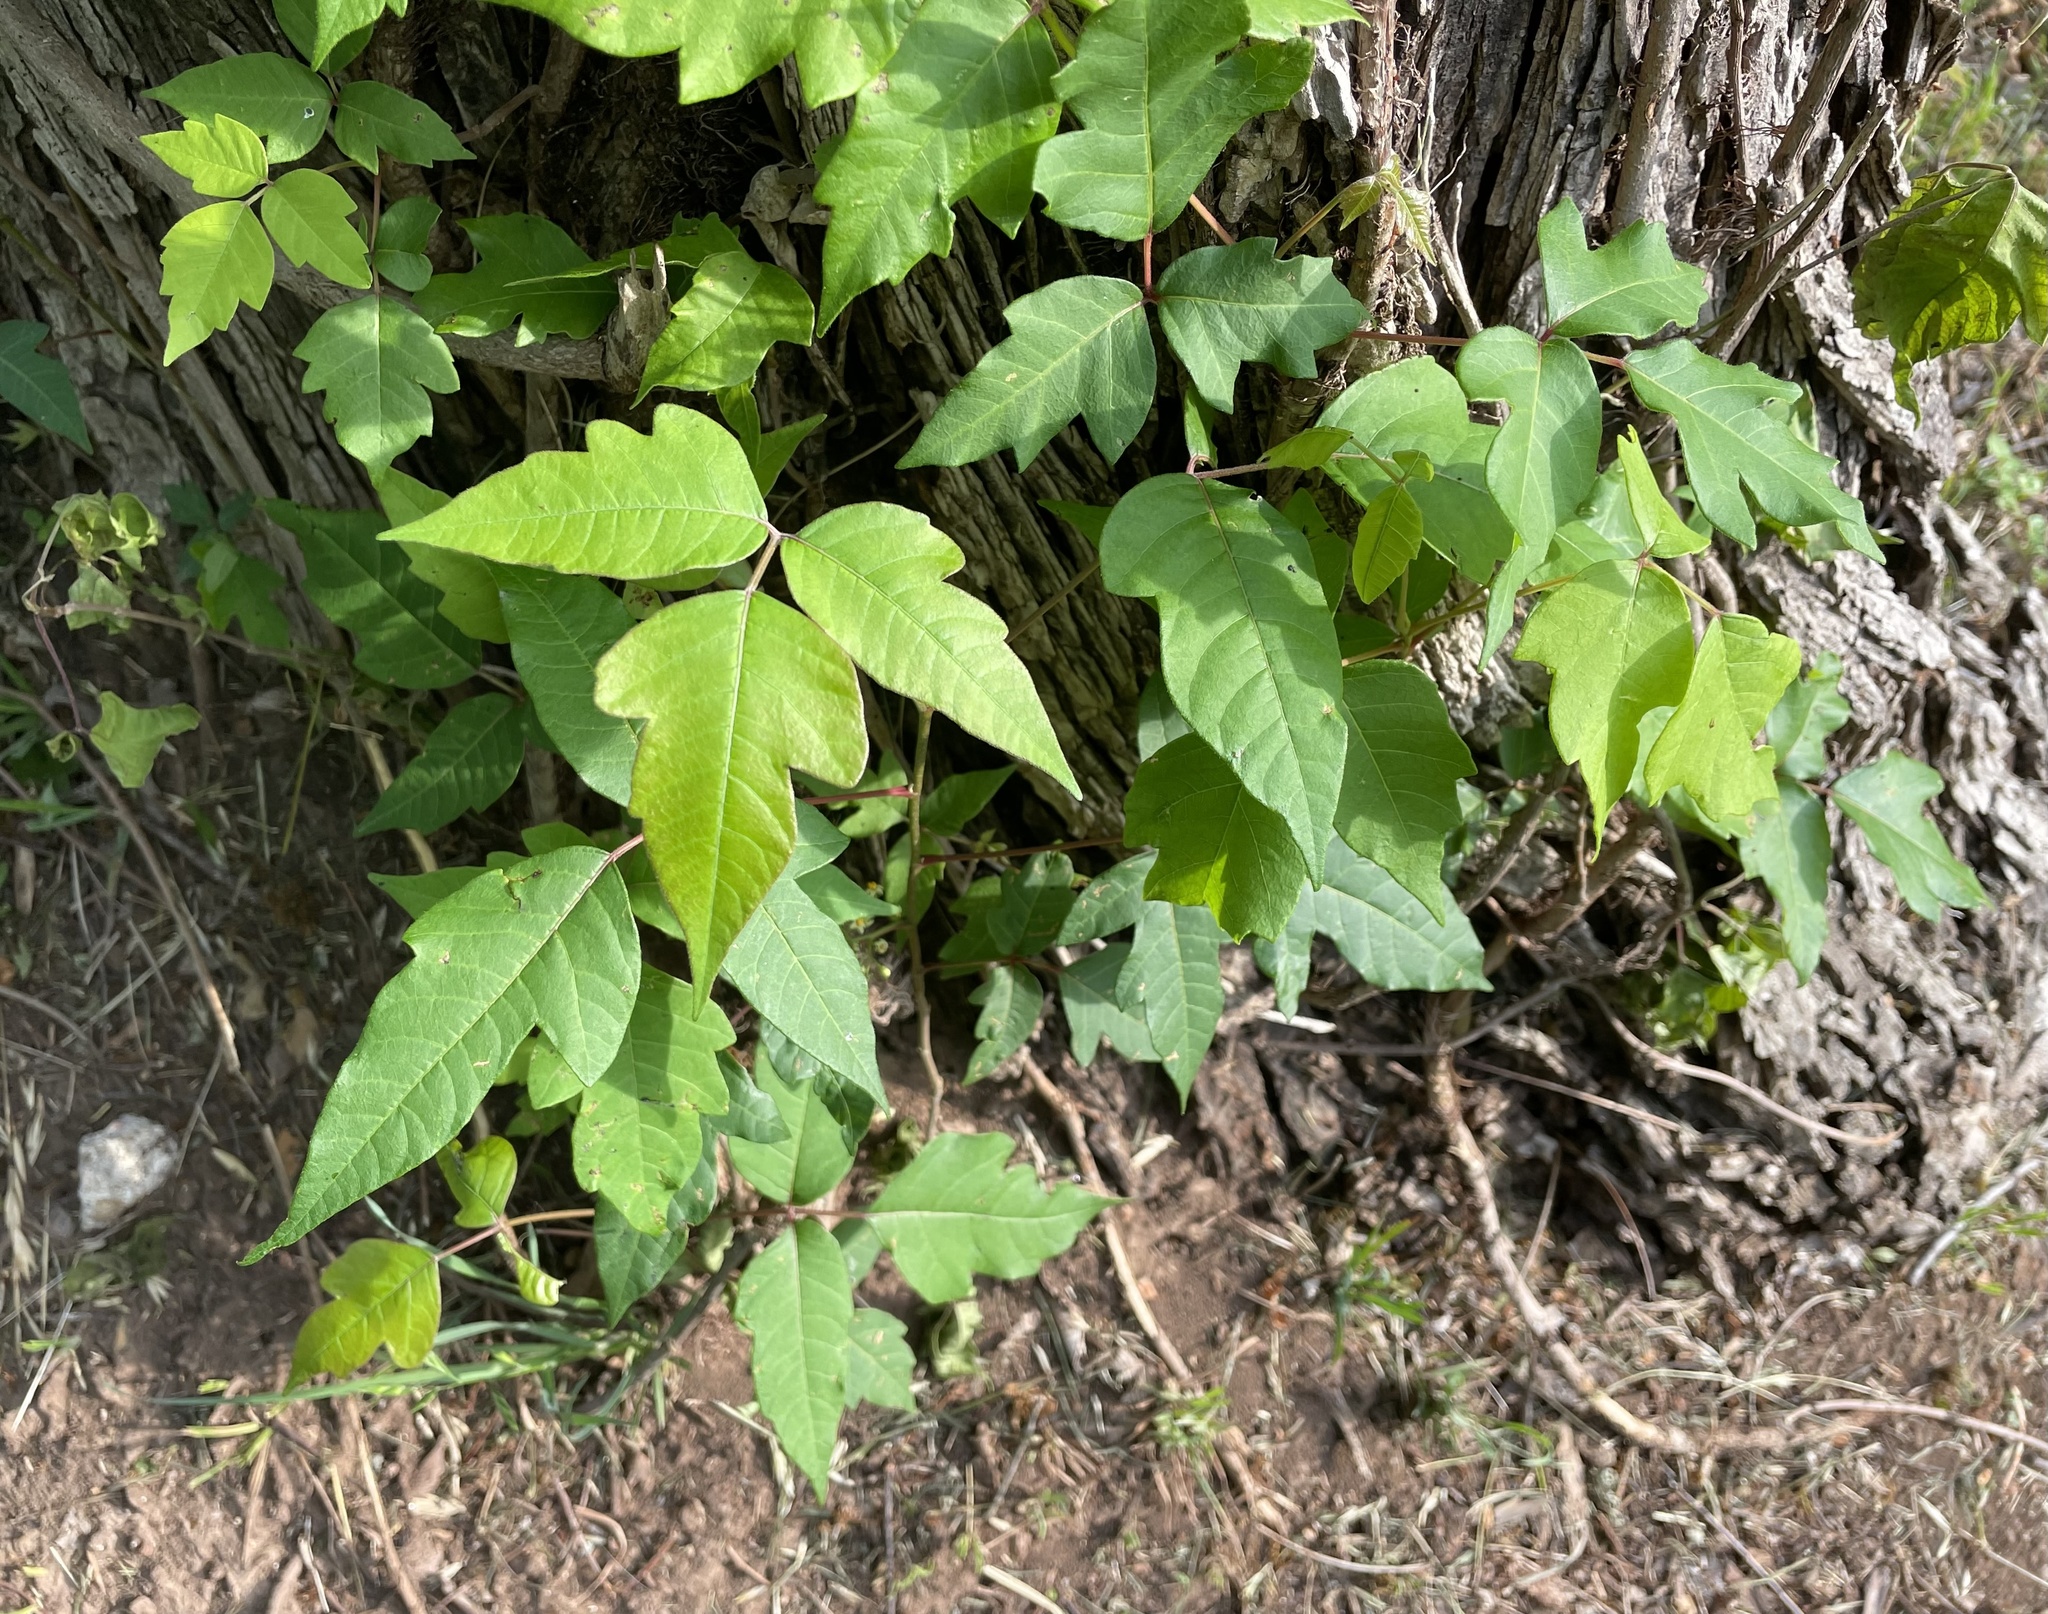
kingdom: Plantae
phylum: Tracheophyta
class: Magnoliopsida
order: Sapindales
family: Anacardiaceae
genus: Toxicodendron
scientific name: Toxicodendron radicans
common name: Poison ivy
